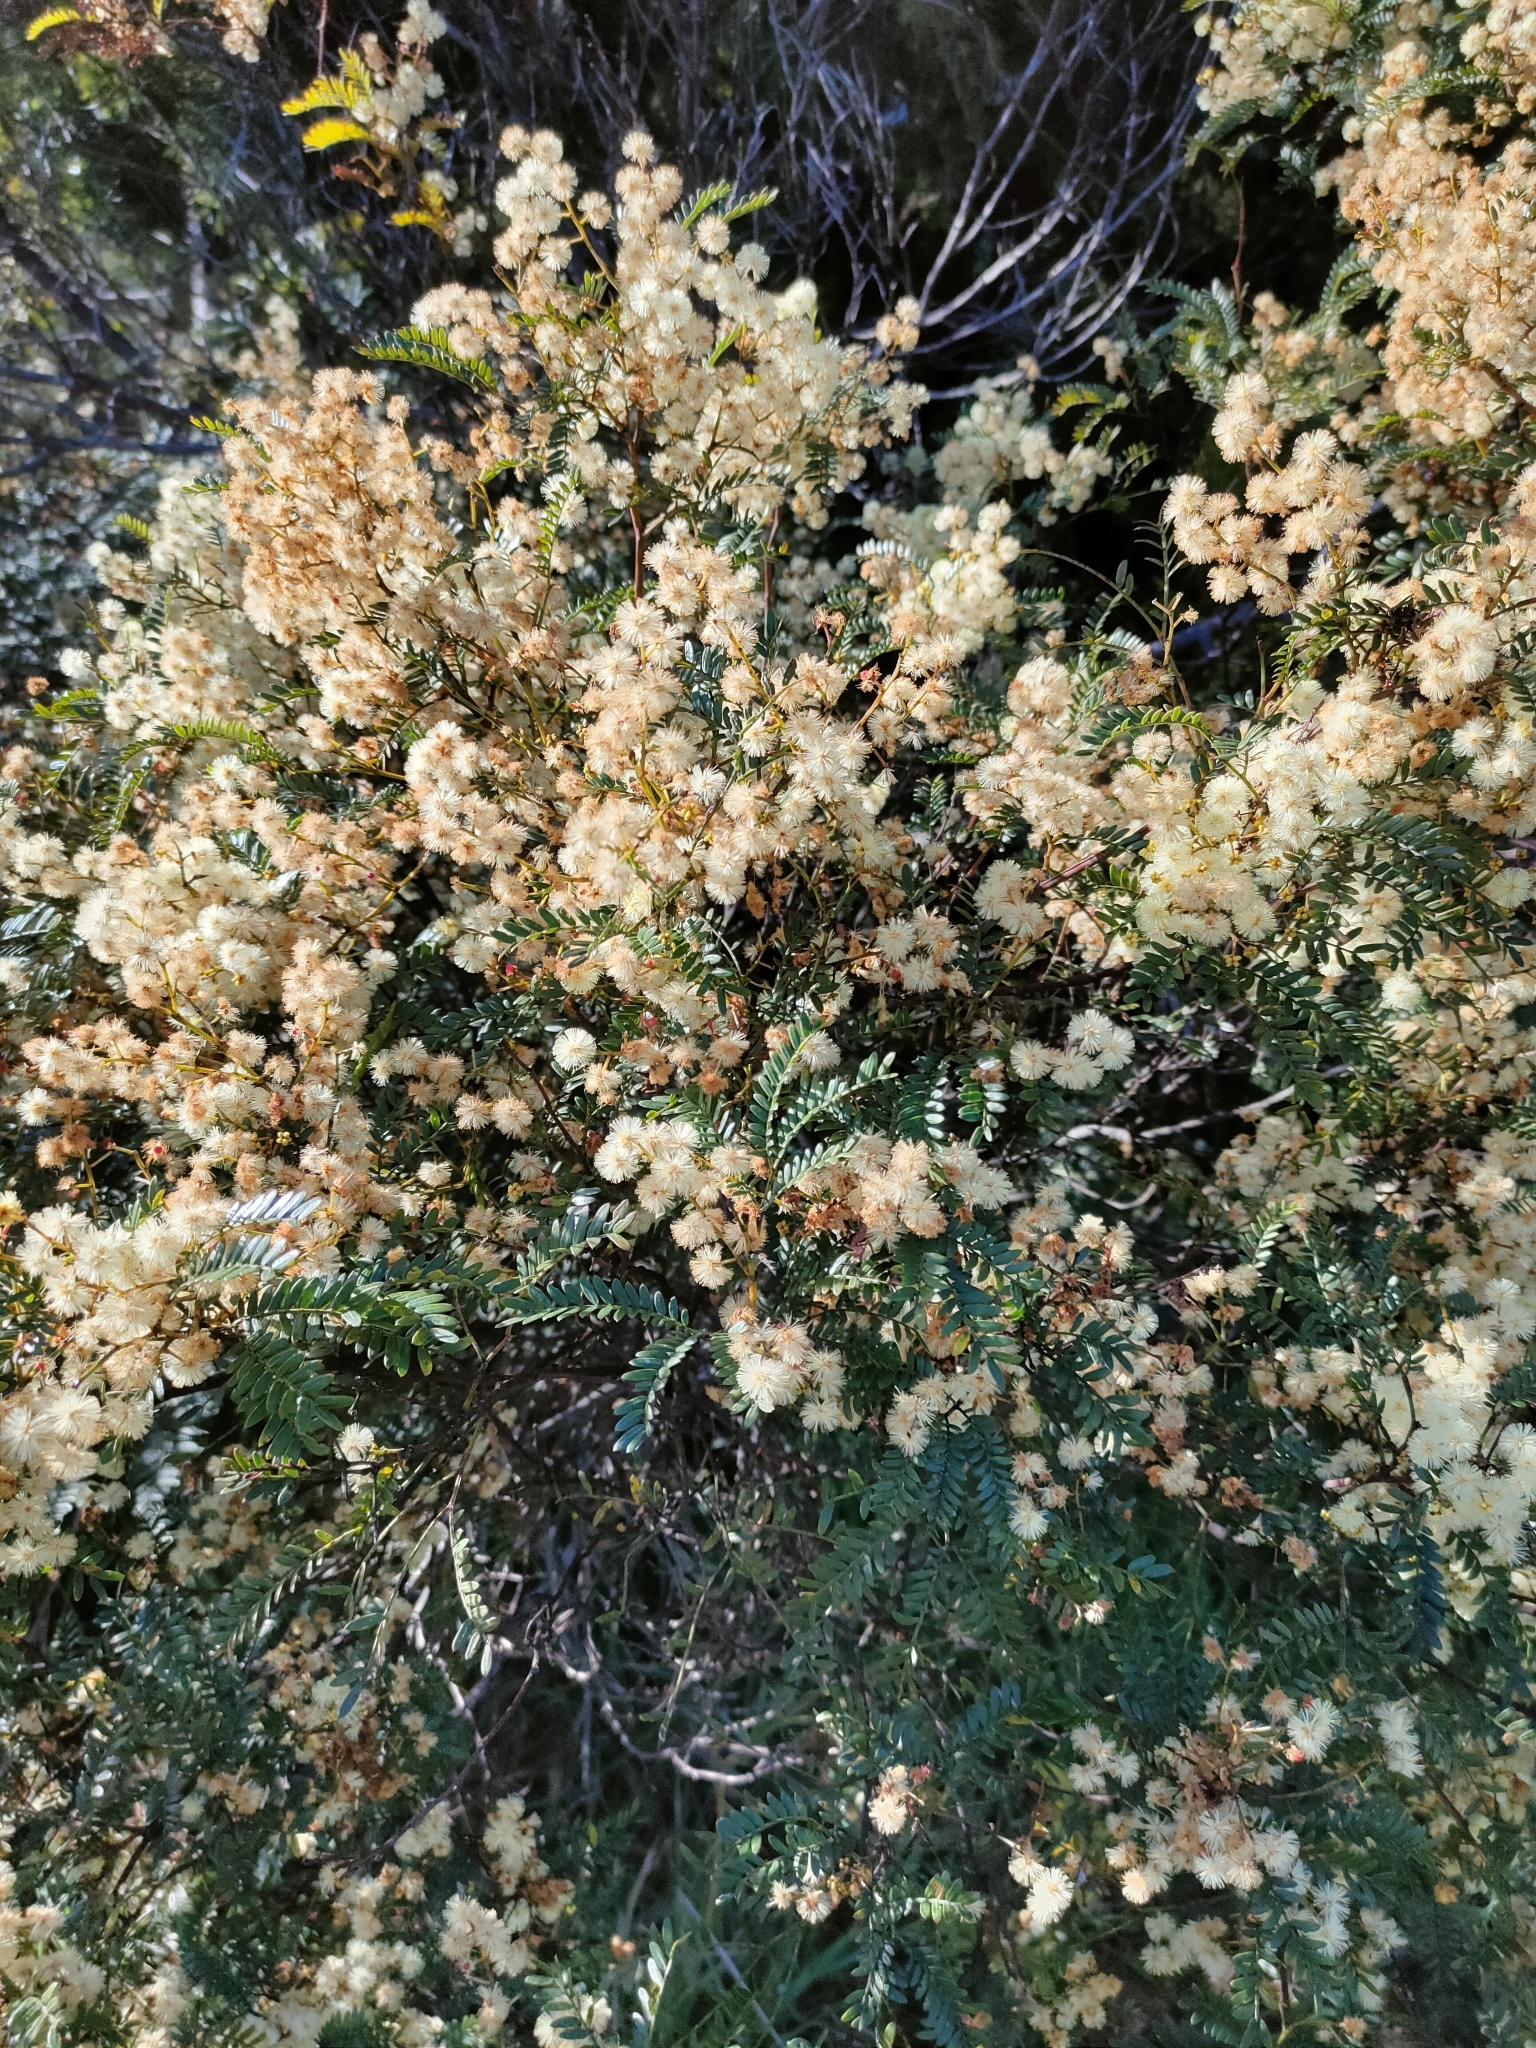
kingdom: Plantae
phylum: Tracheophyta
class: Magnoliopsida
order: Fabales
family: Fabaceae
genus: Acacia
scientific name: Acacia terminalis
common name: Cedar wattle
